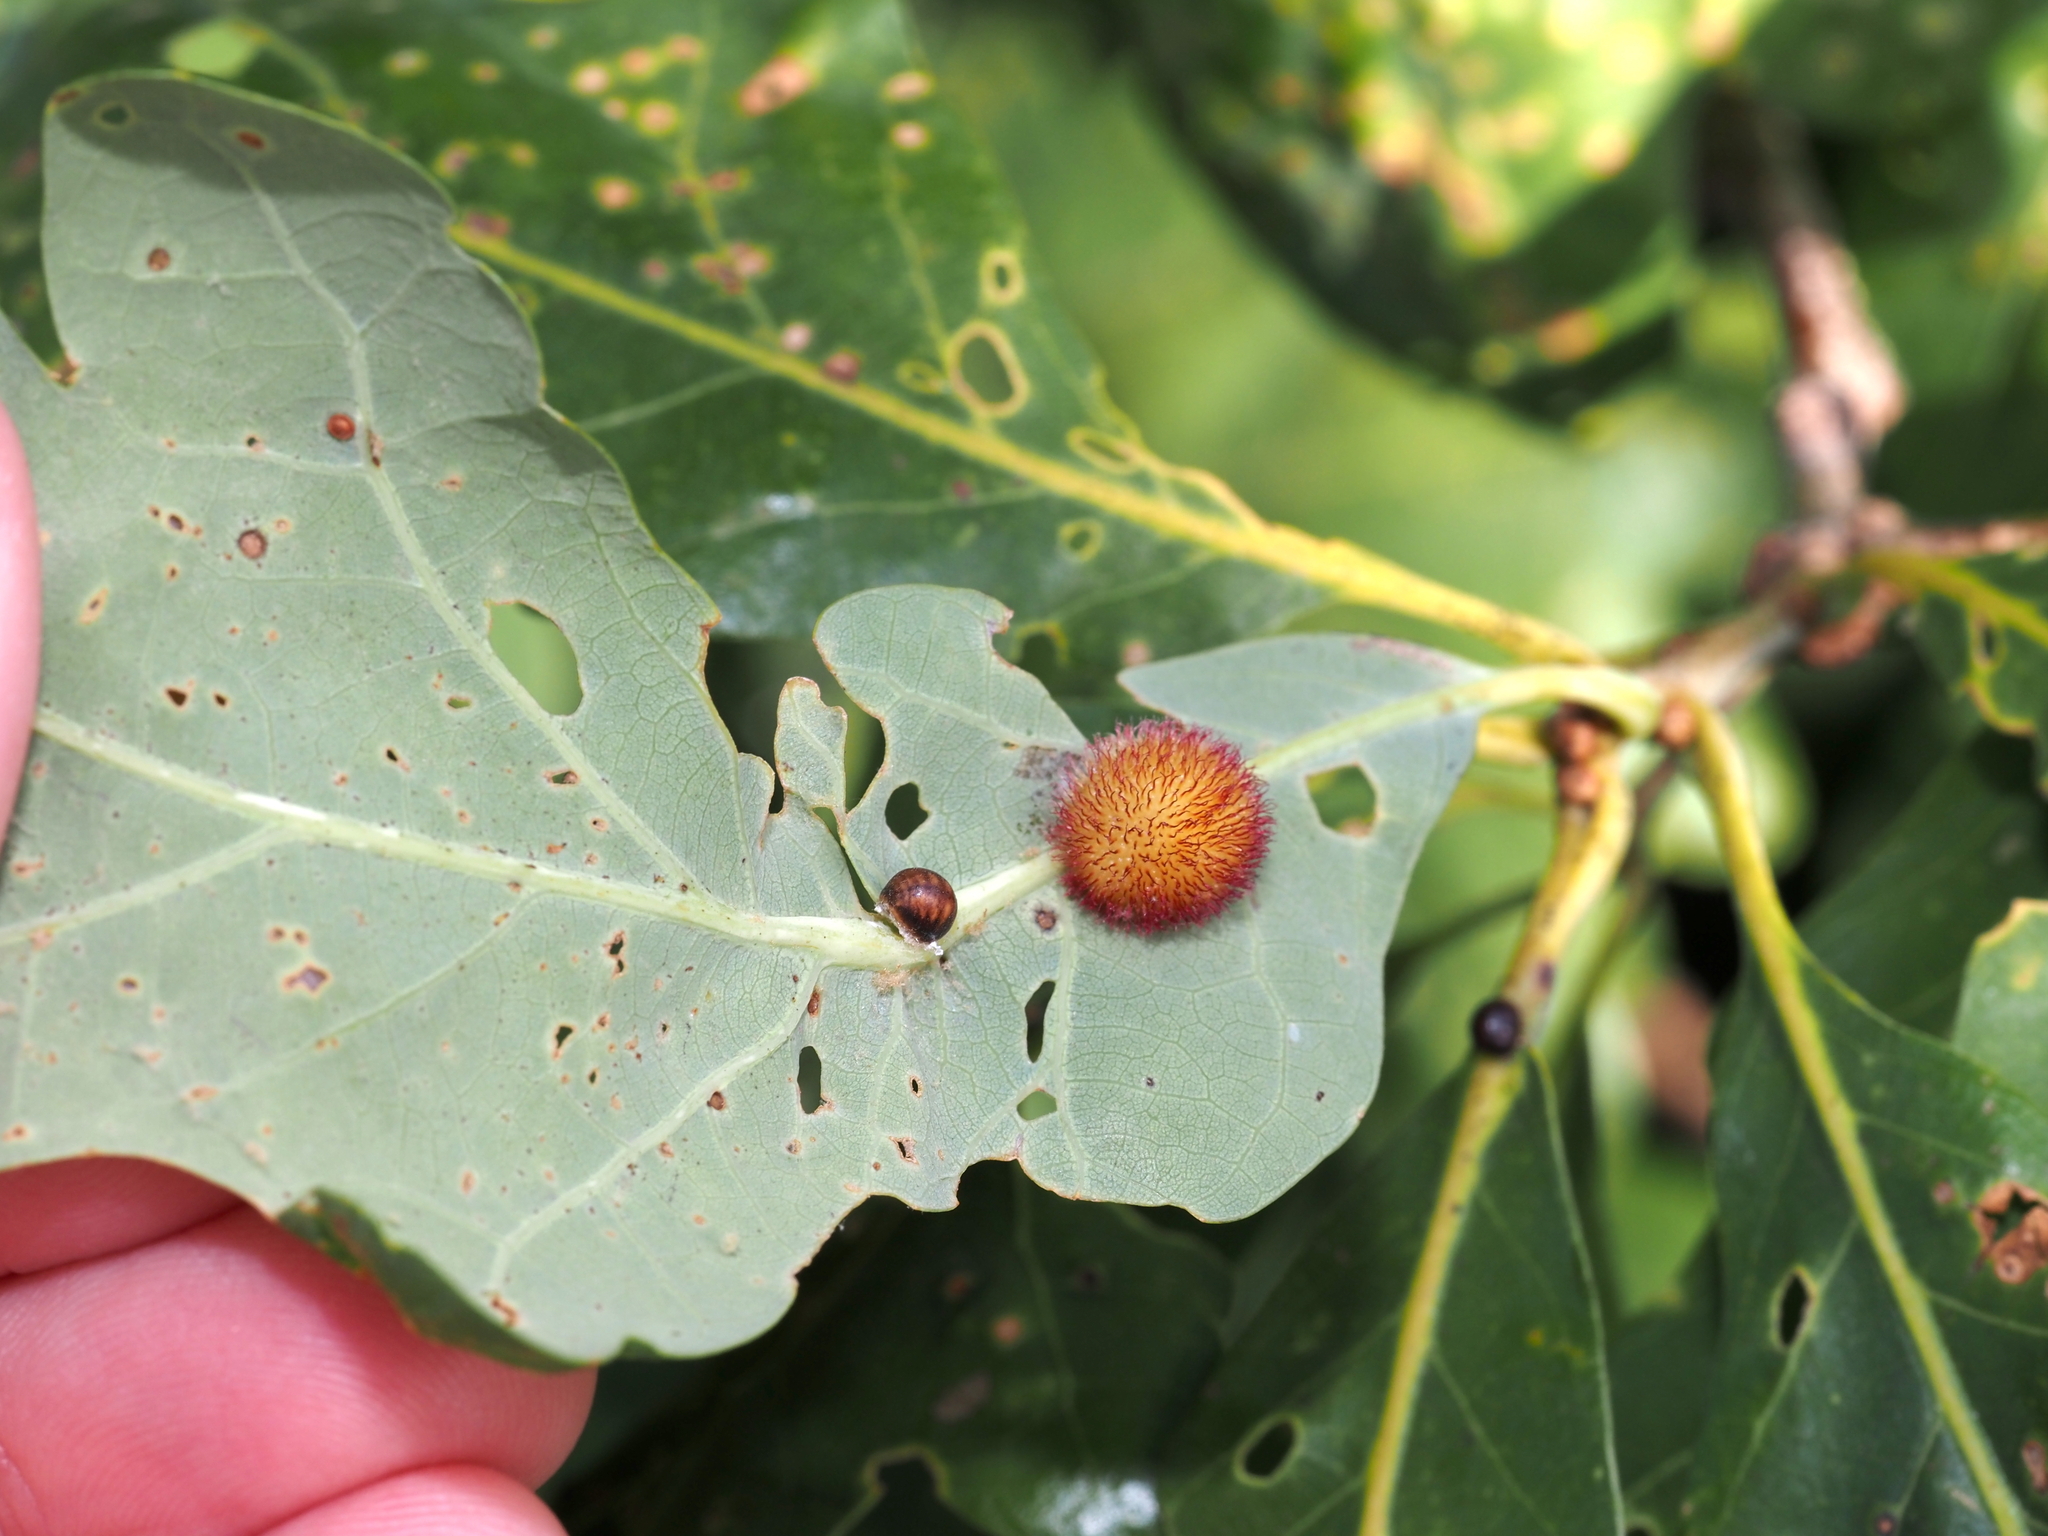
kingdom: Animalia
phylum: Arthropoda
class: Insecta
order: Hymenoptera
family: Cynipidae
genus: Acraspis
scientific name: Acraspis erinacei
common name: Hedgehog gall wasp
